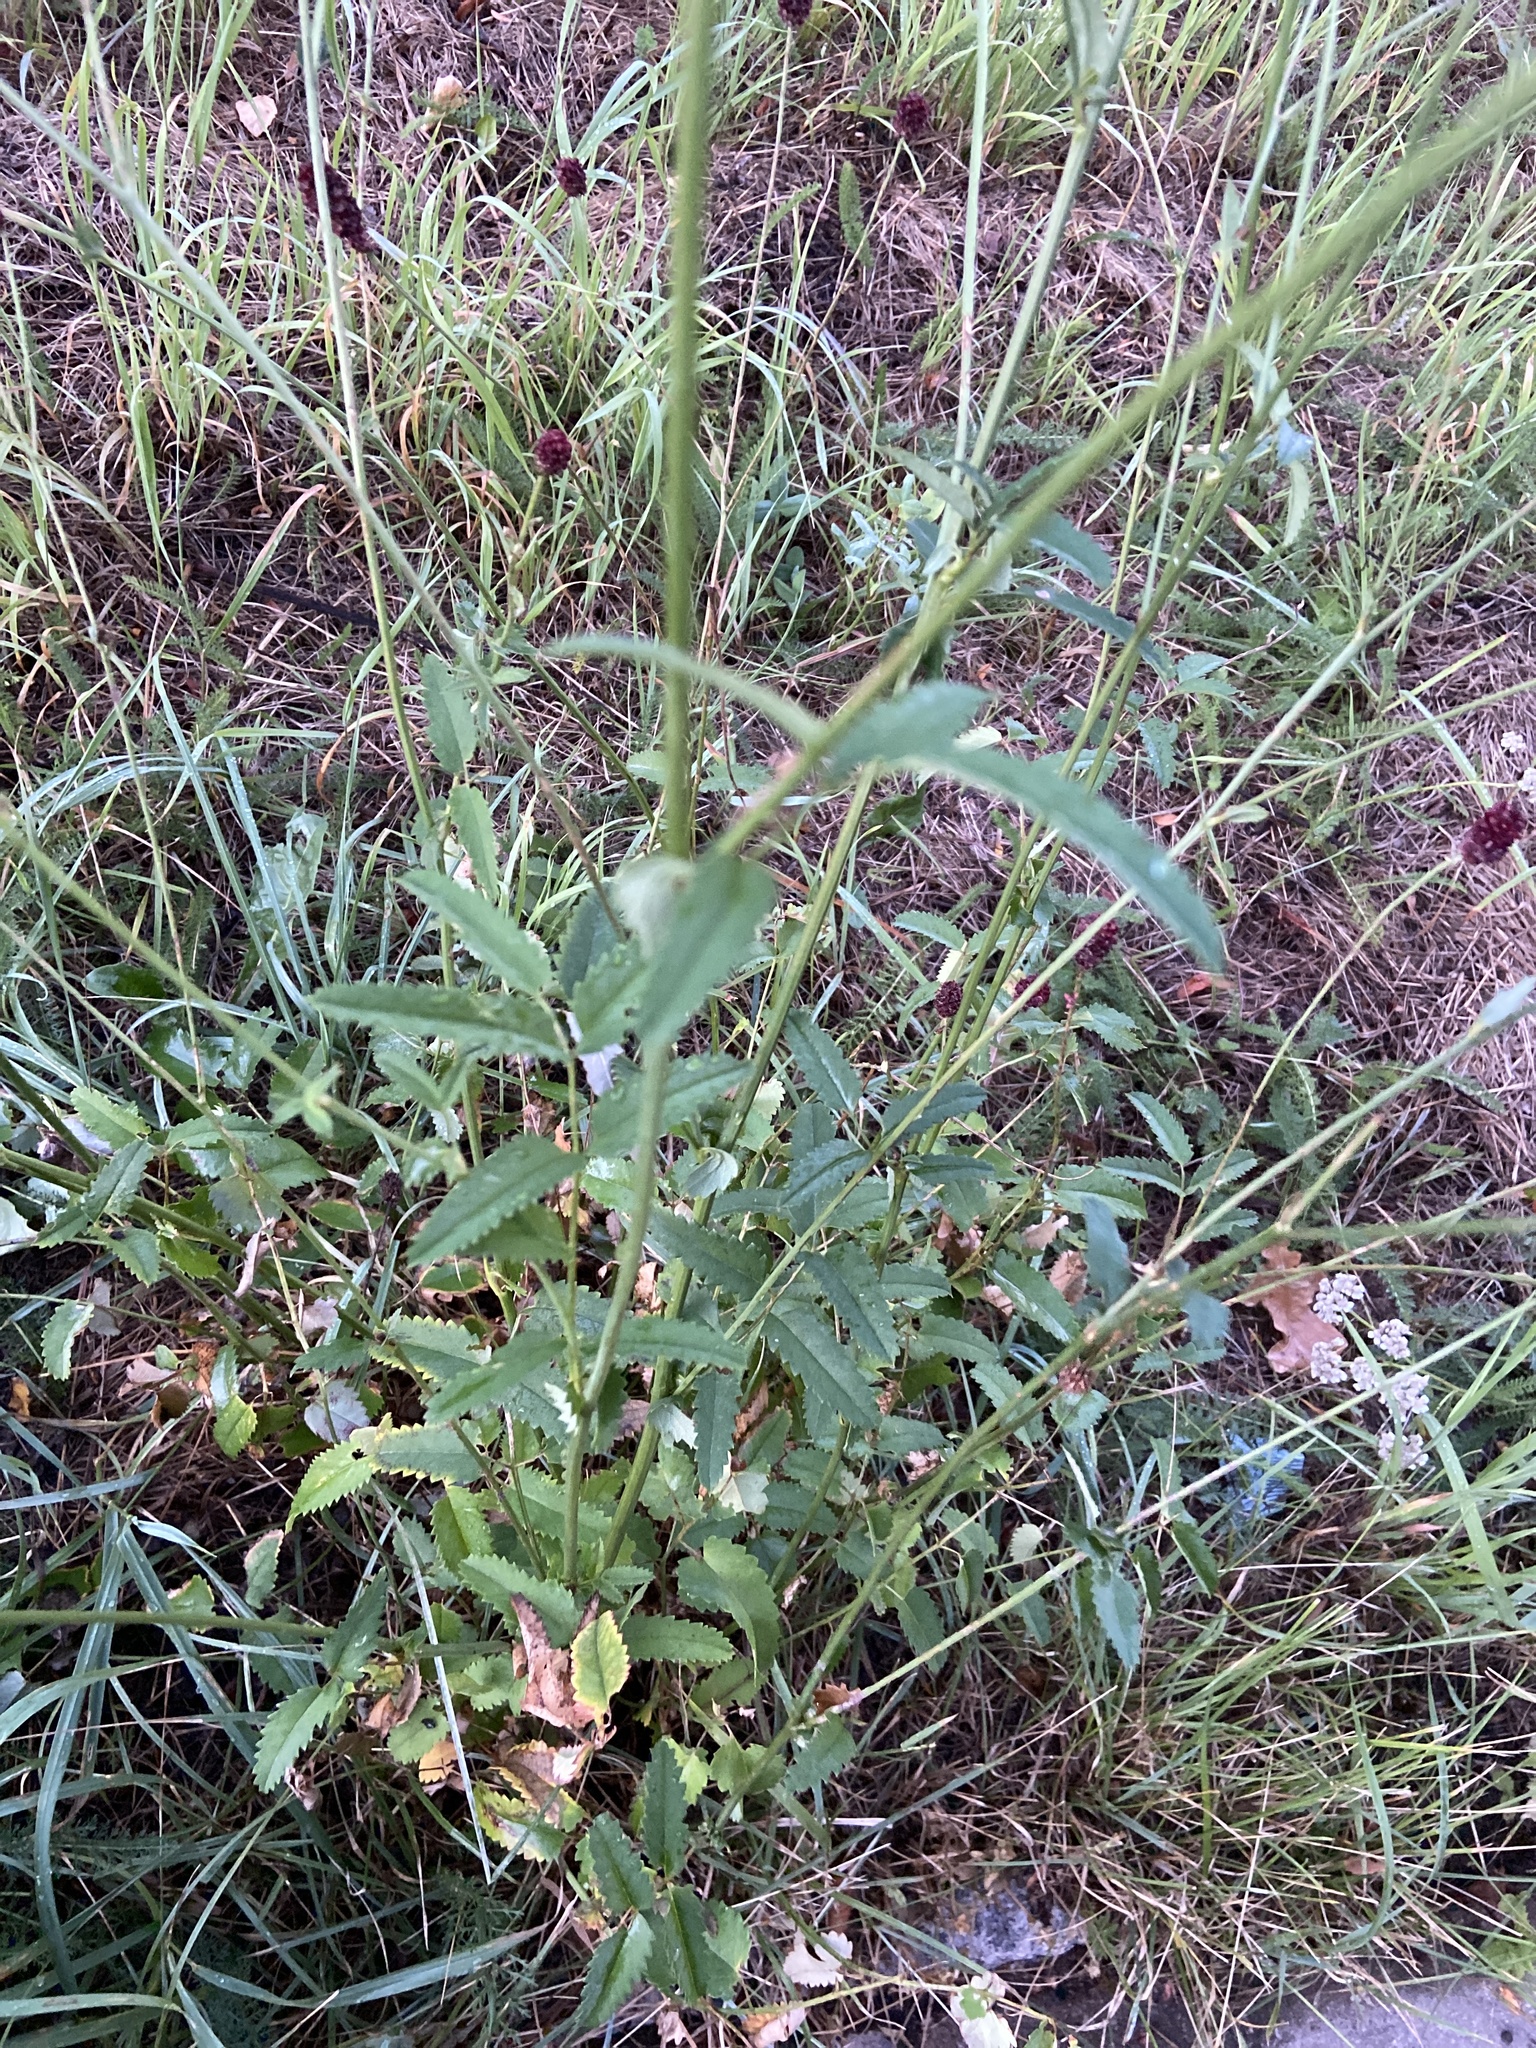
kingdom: Plantae
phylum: Tracheophyta
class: Magnoliopsida
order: Rosales
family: Rosaceae
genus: Sanguisorba
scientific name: Sanguisorba officinalis
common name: Great burnet
